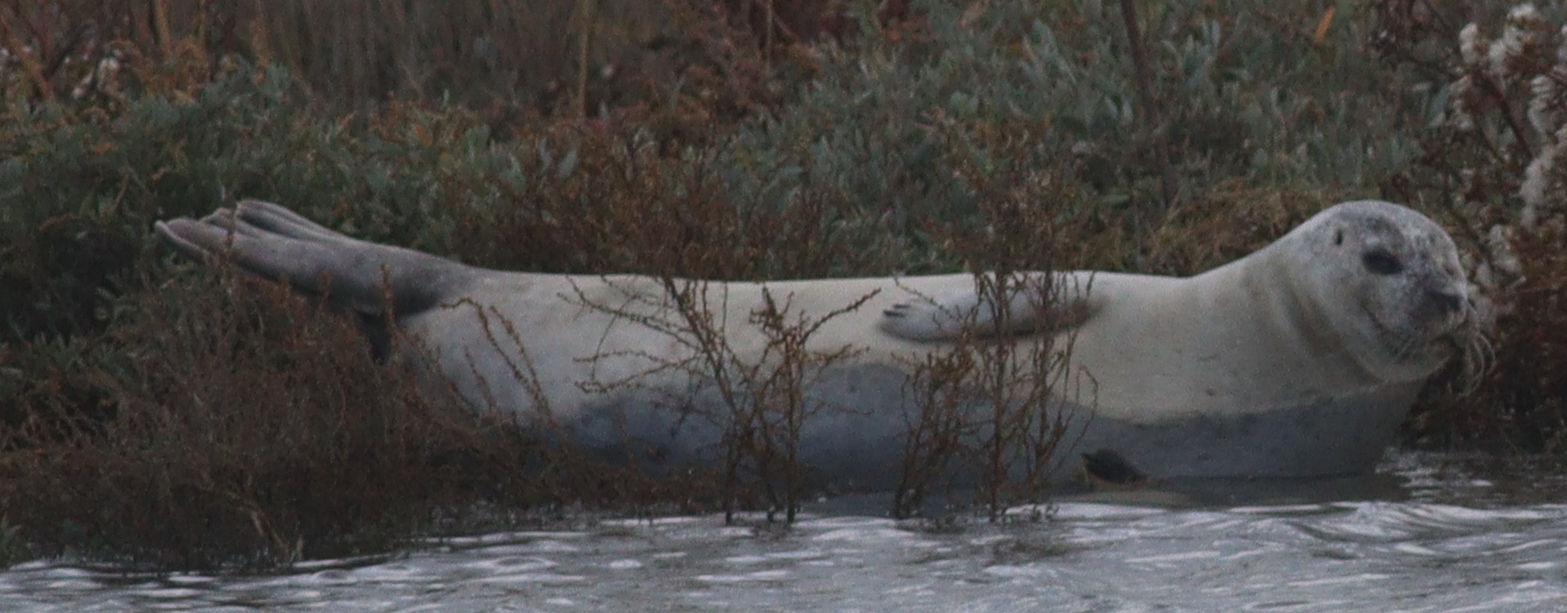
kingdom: Animalia
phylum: Chordata
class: Mammalia
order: Carnivora
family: Phocidae
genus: Phoca
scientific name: Phoca vitulina
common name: Harbor seal
